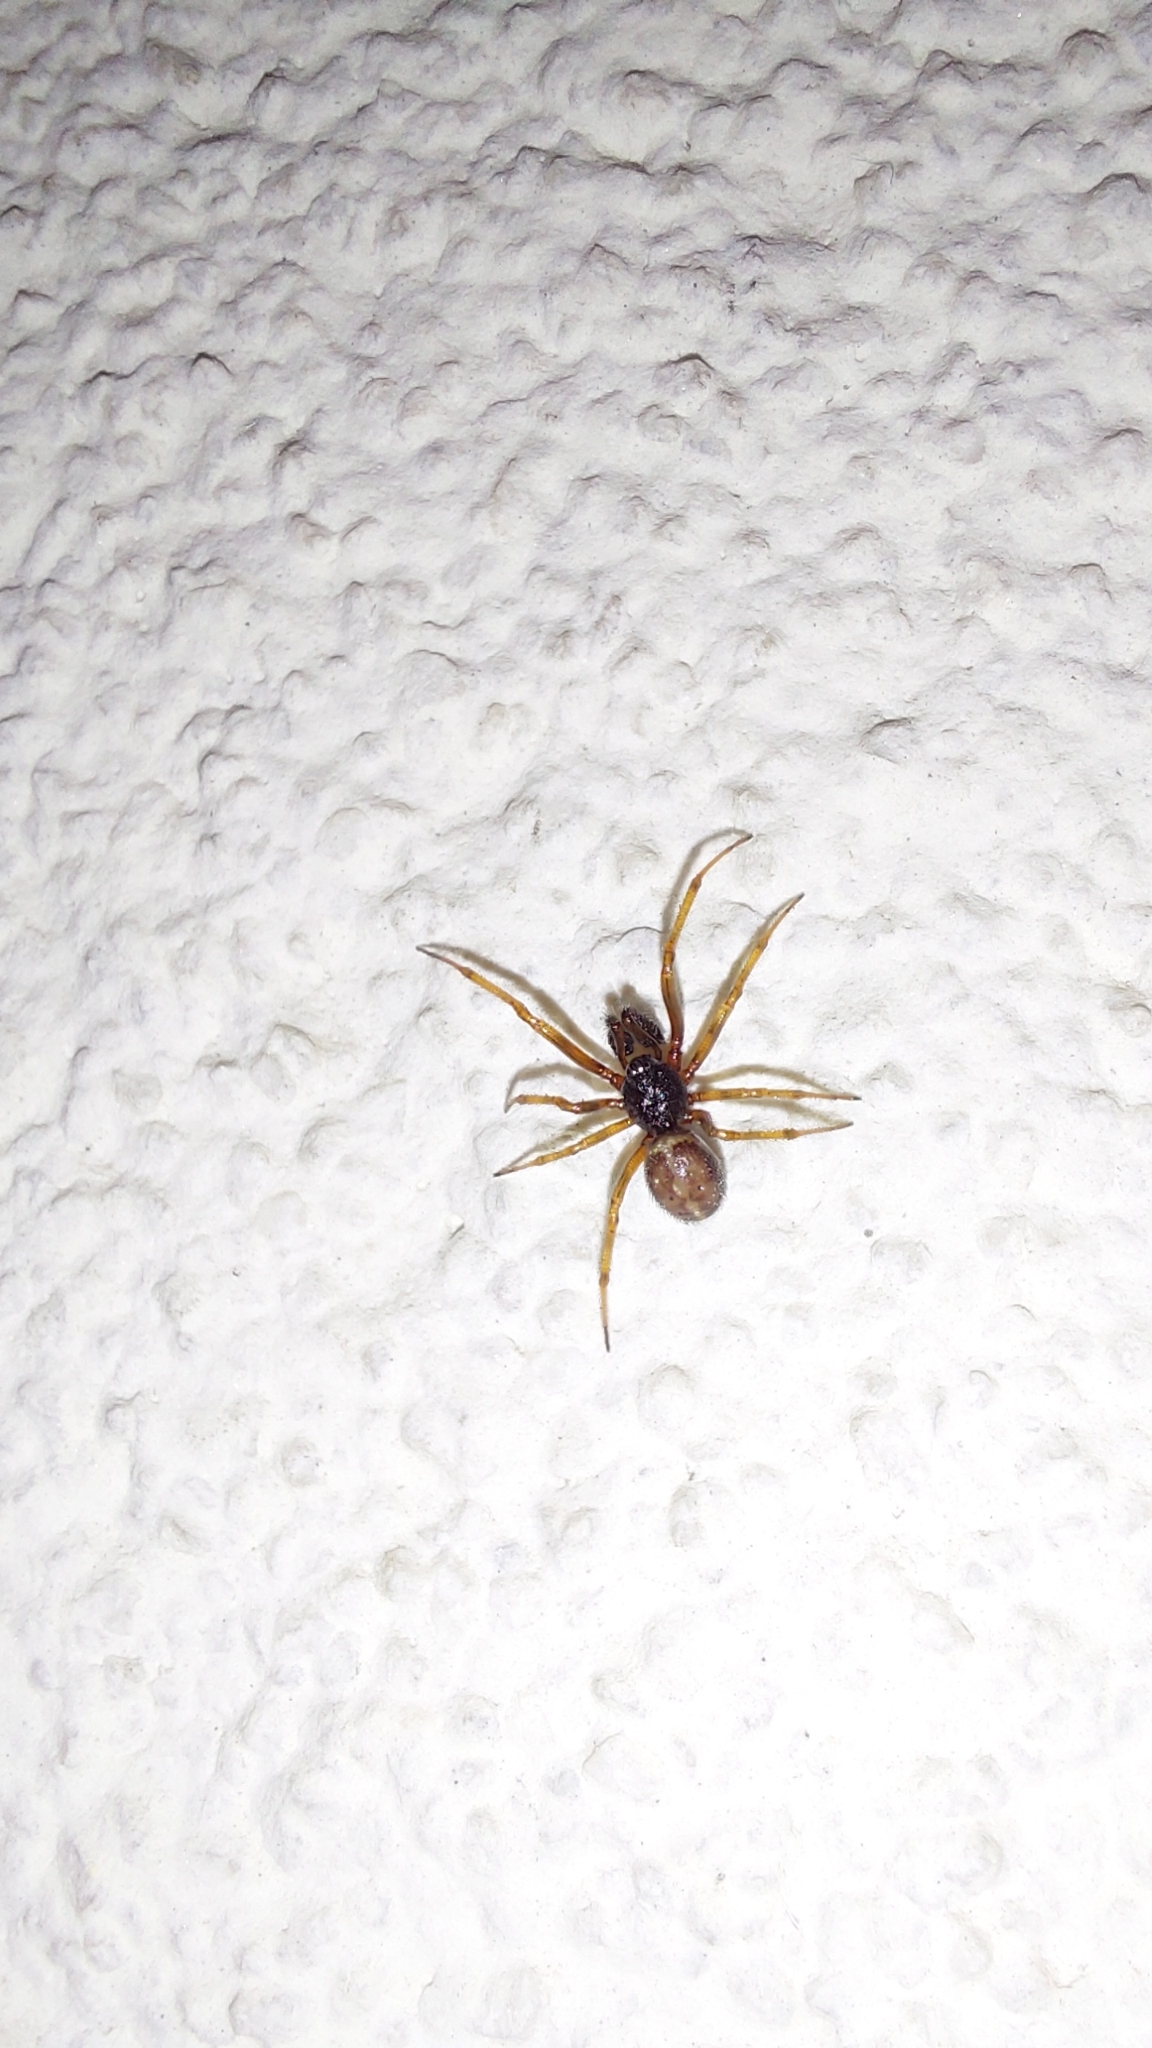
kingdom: Animalia
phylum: Arthropoda
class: Arachnida
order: Araneae
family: Theridiidae
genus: Steatoda
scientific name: Steatoda bipunctata
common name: False widow
